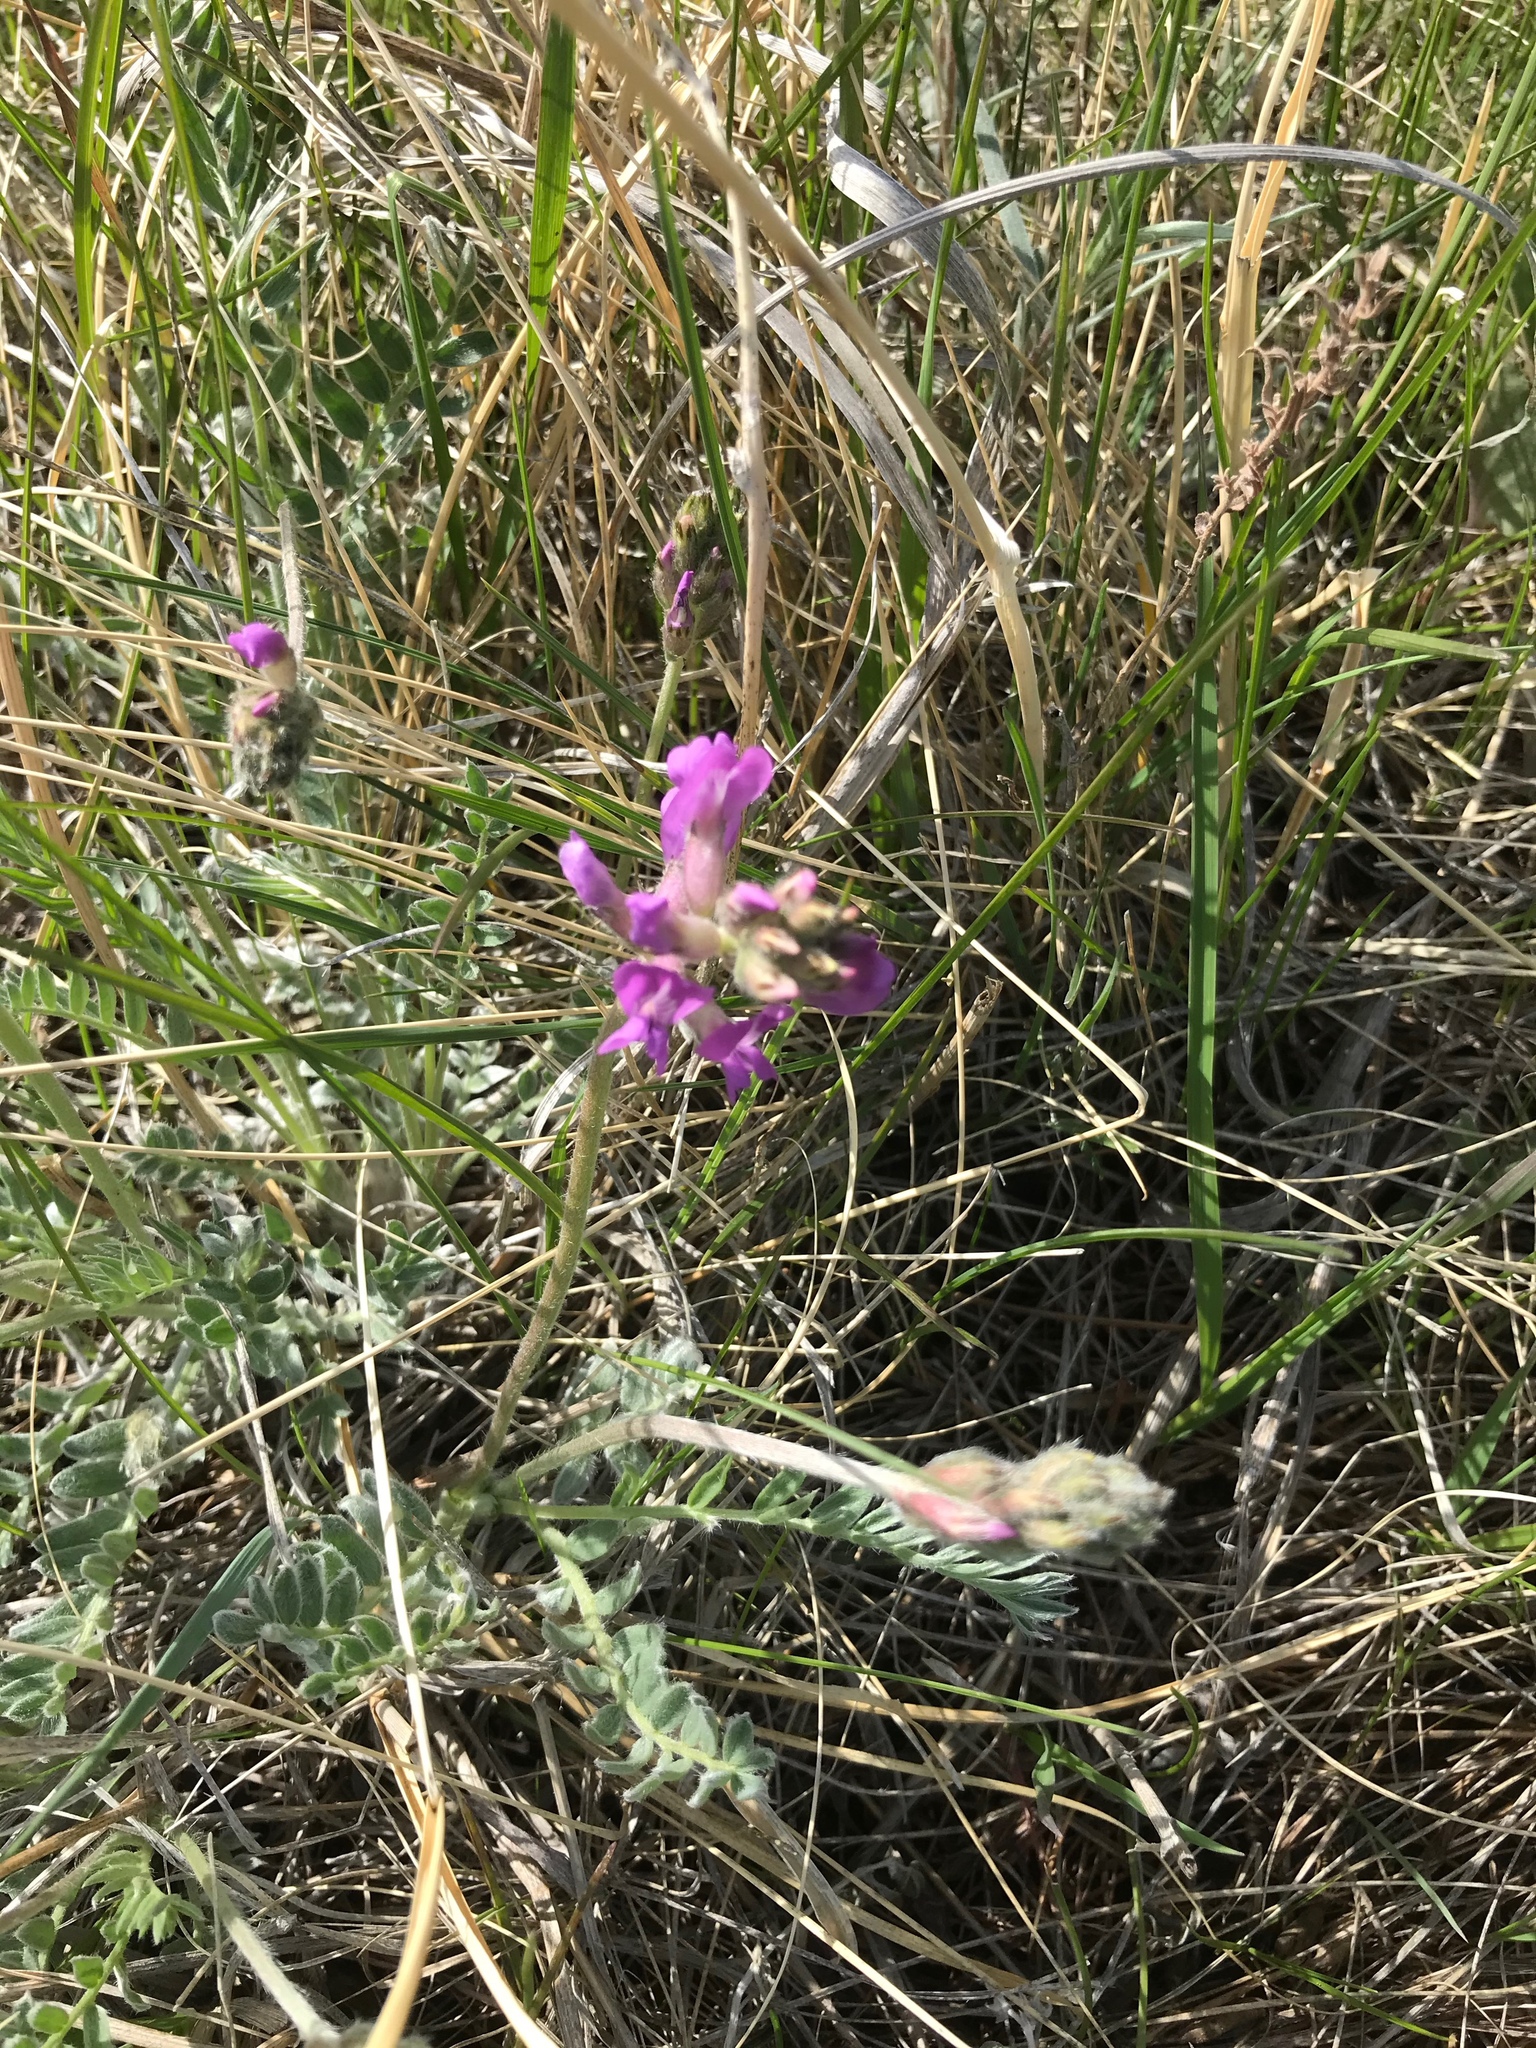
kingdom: Plantae
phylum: Tracheophyta
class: Magnoliopsida
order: Fabales
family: Fabaceae
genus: Oxytropis
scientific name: Oxytropis lambertii
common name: Purple locoweed
